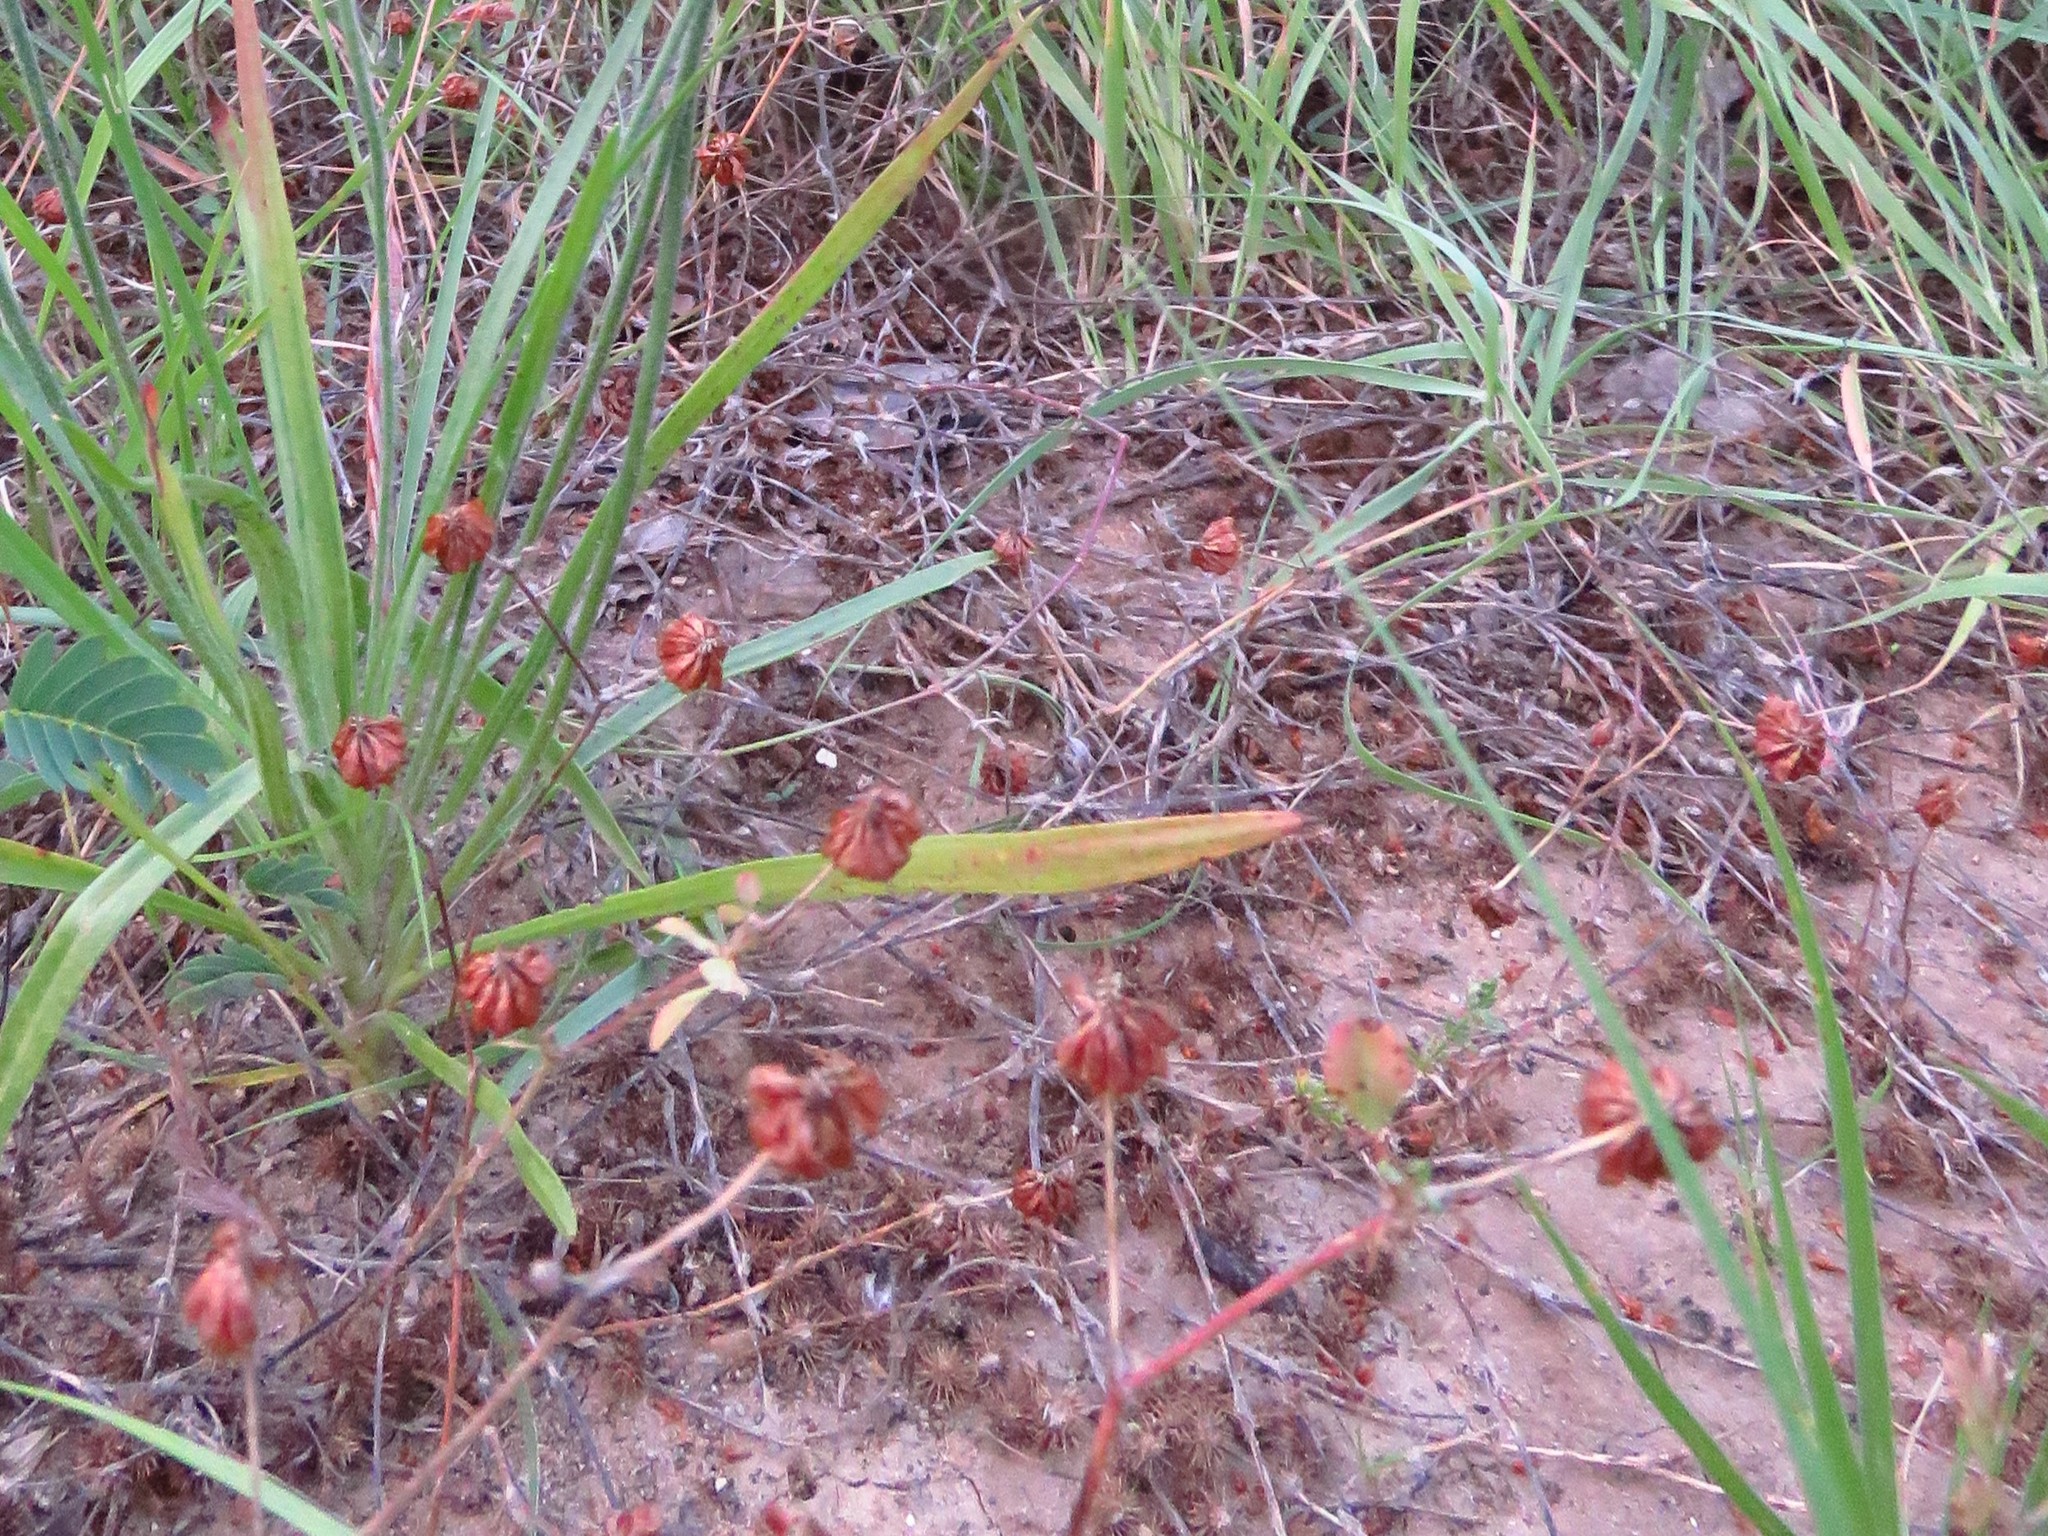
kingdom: Plantae
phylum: Tracheophyta
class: Magnoliopsida
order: Fabales
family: Fabaceae
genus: Trifolium
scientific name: Trifolium campestre
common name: Field clover
